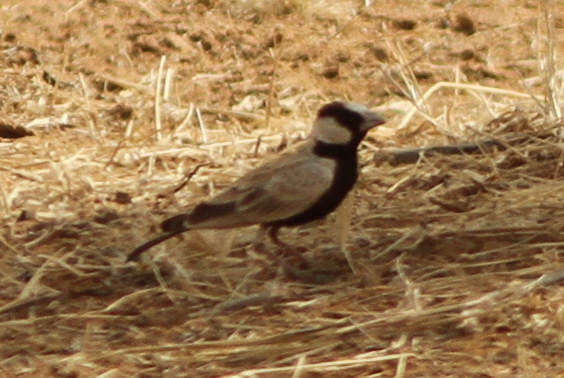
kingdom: Animalia
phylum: Chordata
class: Aves
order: Passeriformes
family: Alaudidae
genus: Eremopterix
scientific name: Eremopterix nigriceps
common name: Black-crowned sparrow-lark
